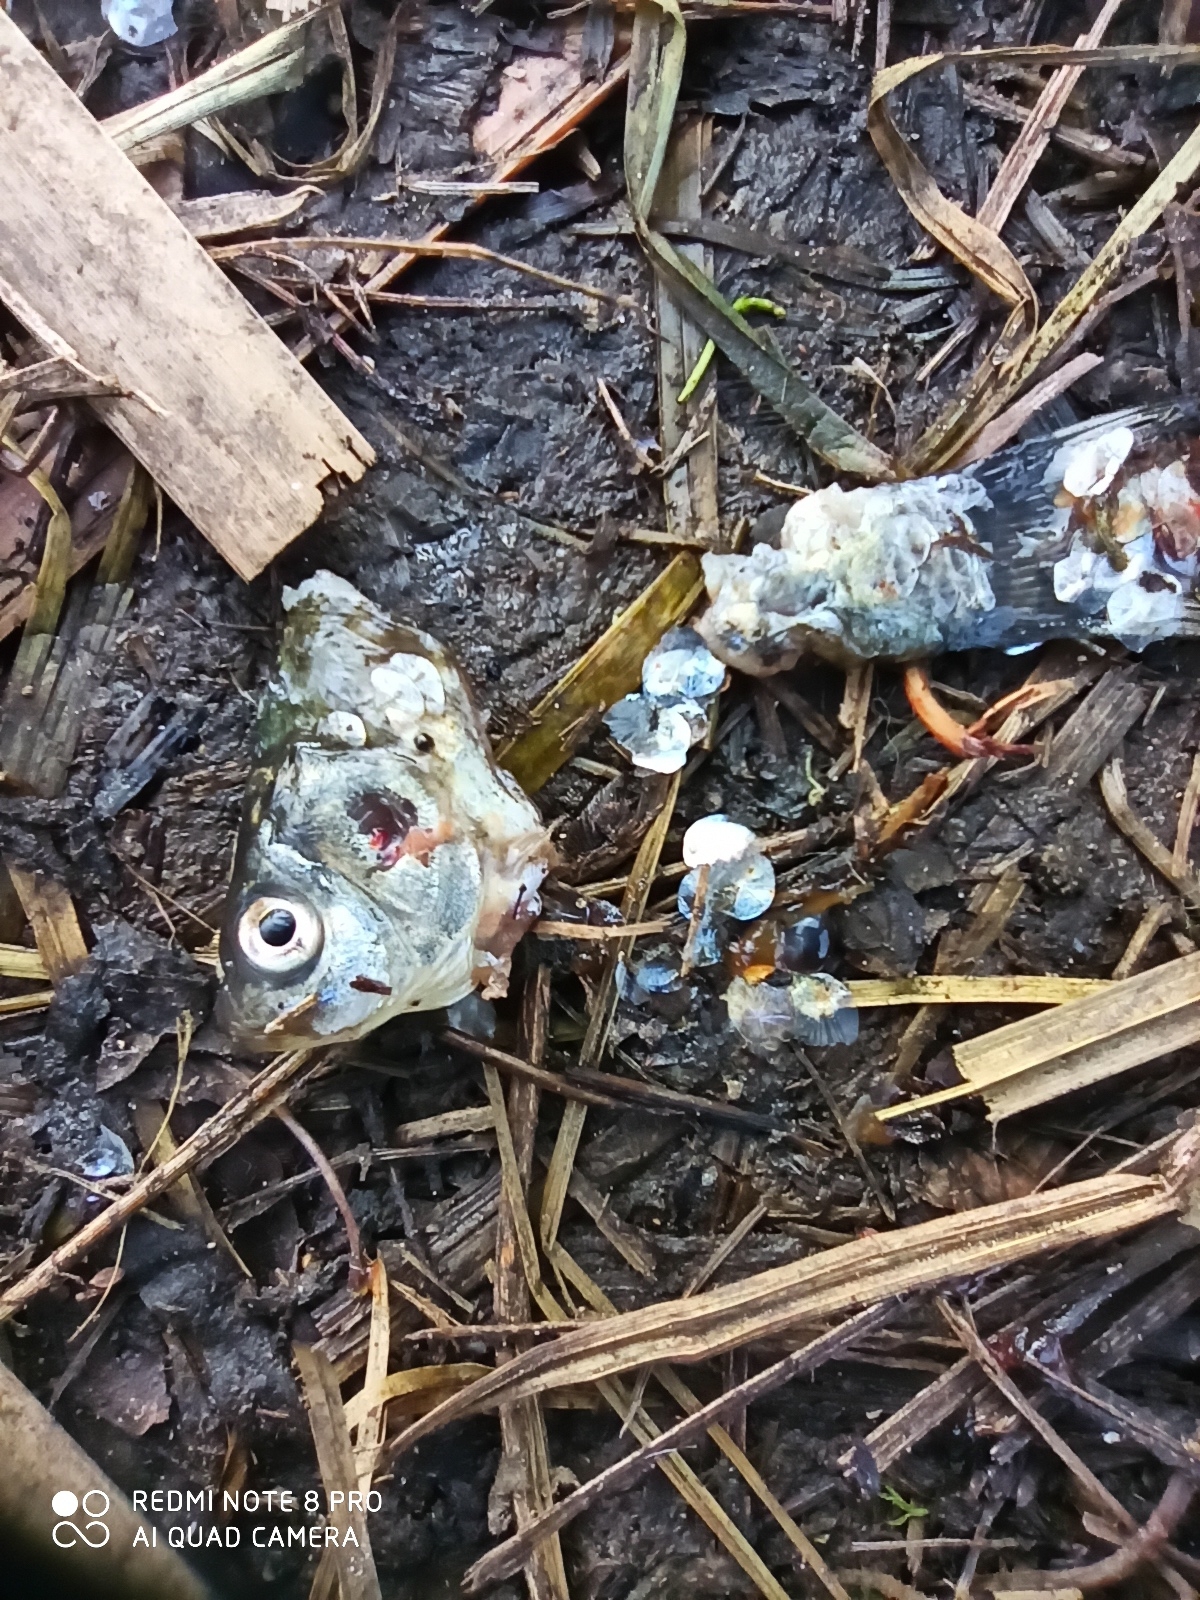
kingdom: Animalia
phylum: Chordata
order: Cypriniformes
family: Cyprinidae
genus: Carassius
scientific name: Carassius gibelio
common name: Prussian carp
